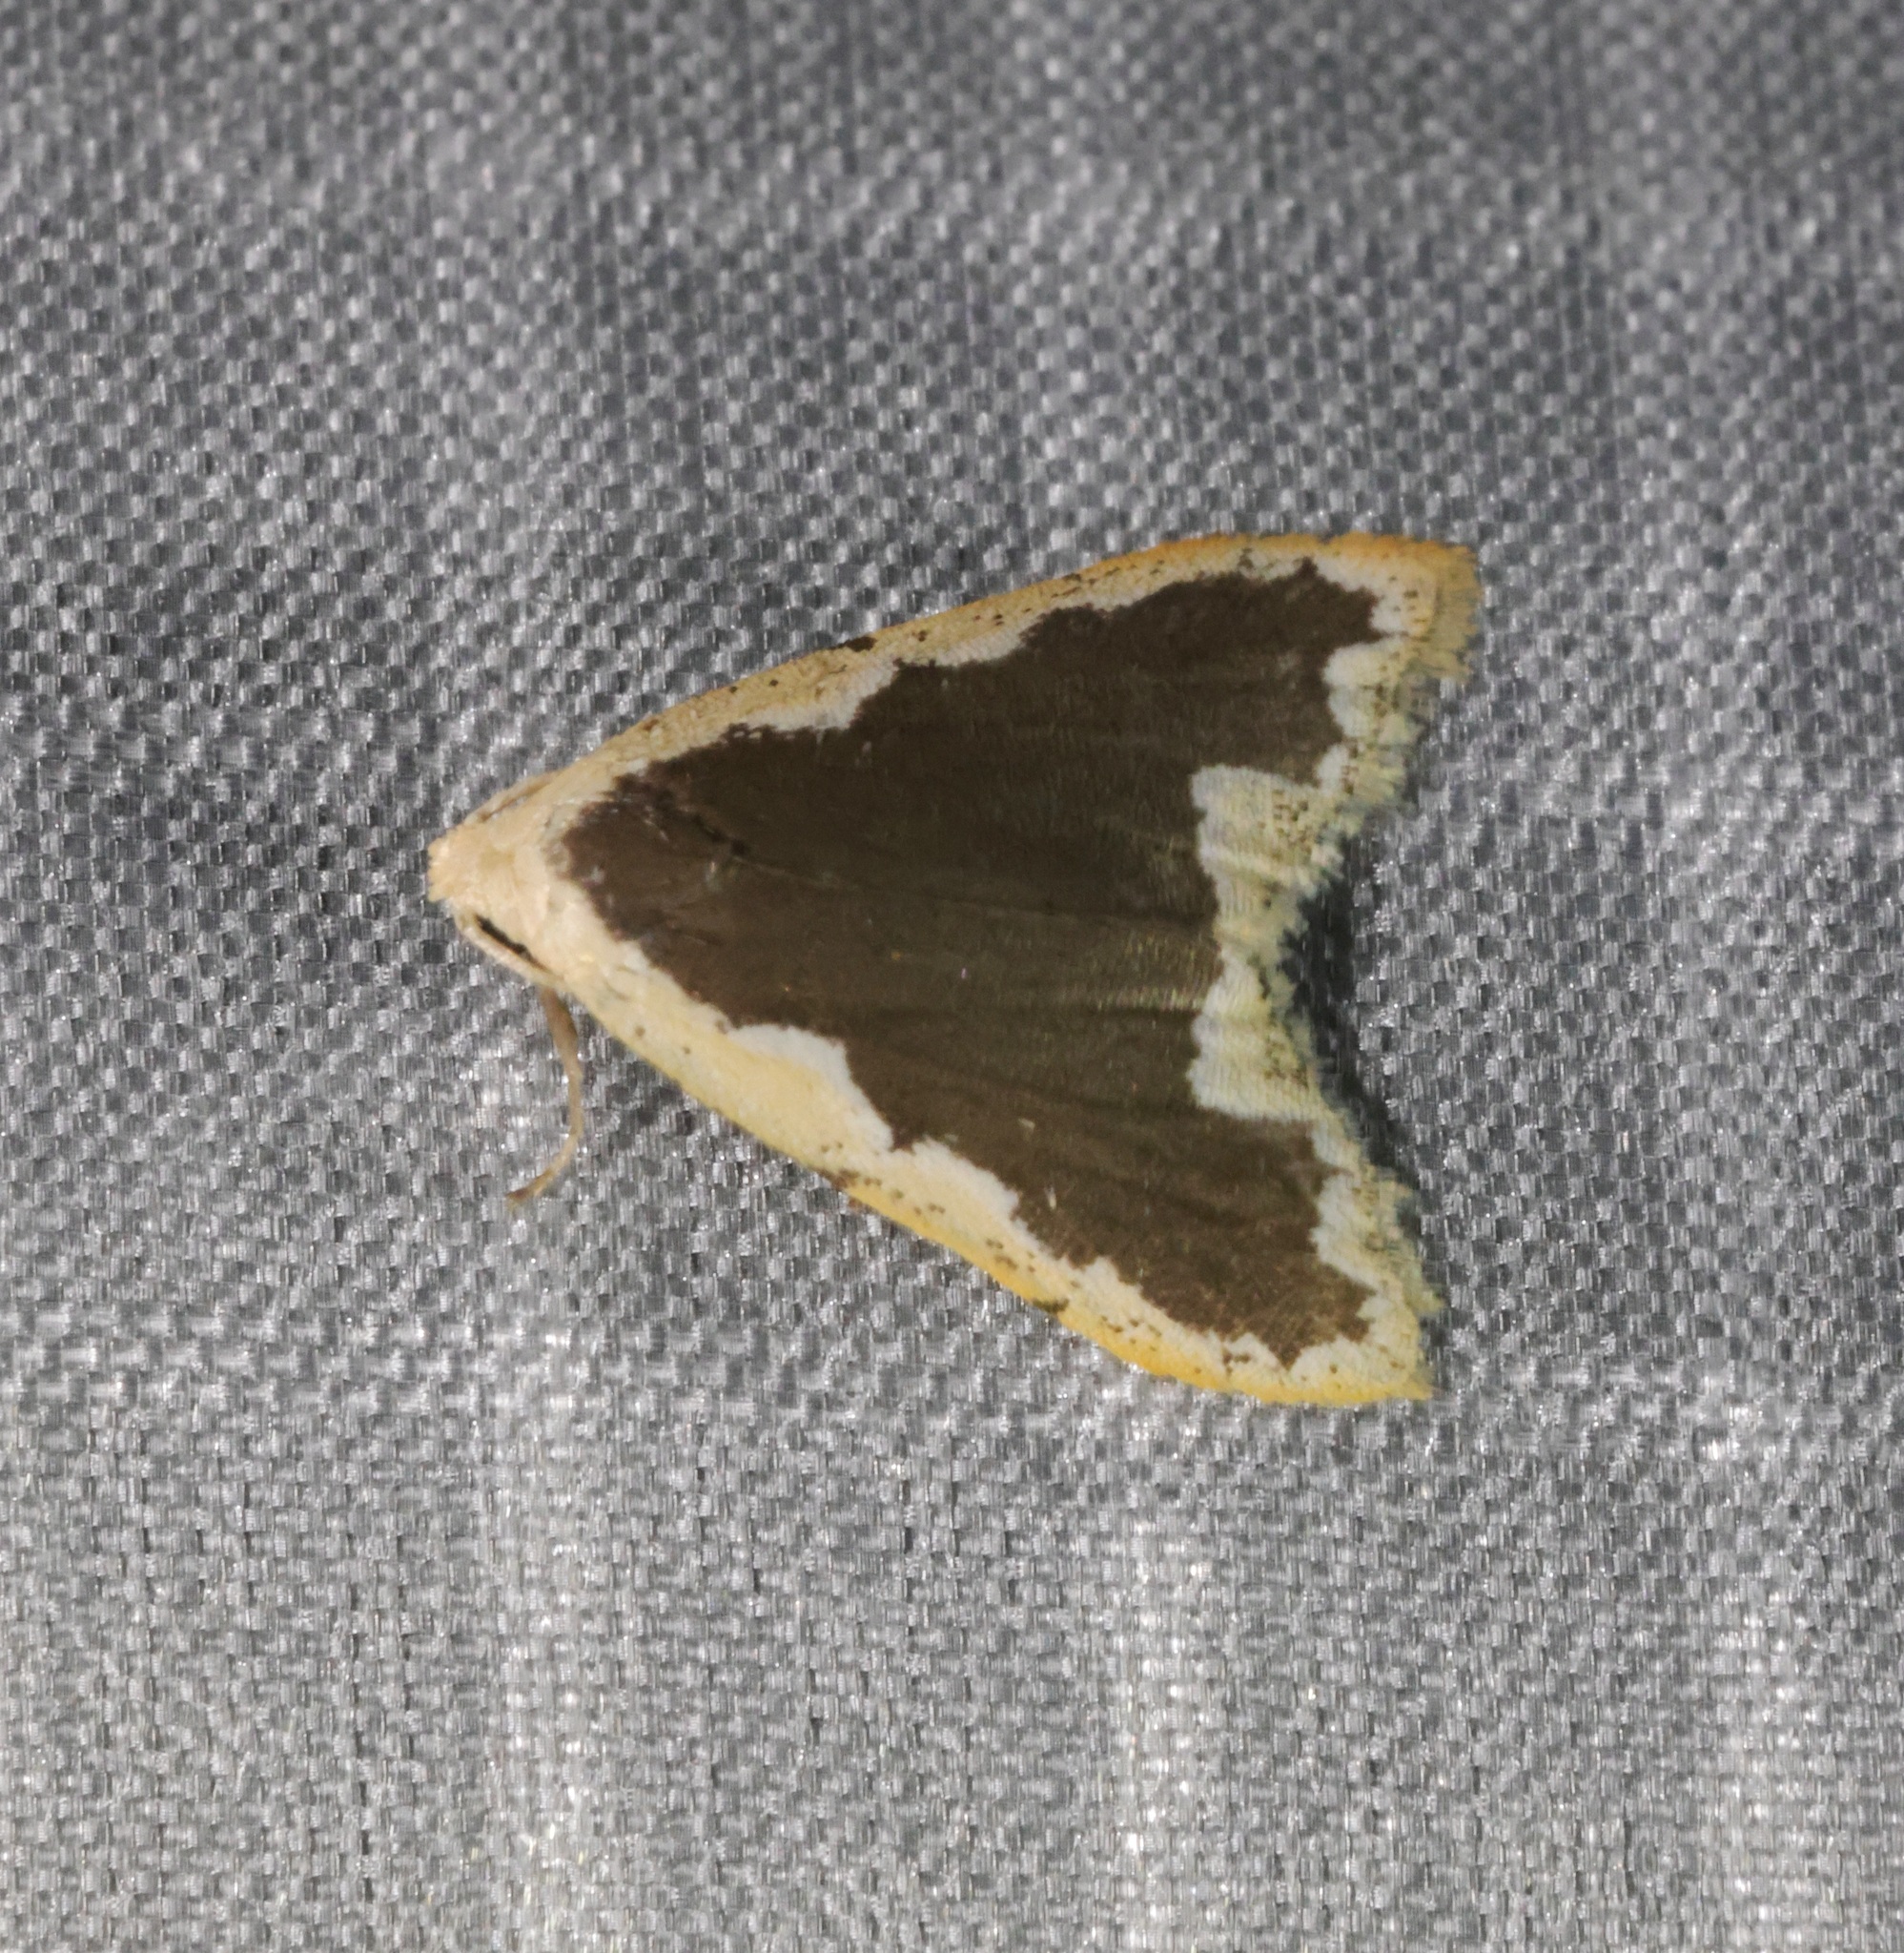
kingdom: Animalia
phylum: Arthropoda
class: Insecta
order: Lepidoptera
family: Erebidae
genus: Diduga
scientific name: Diduga flavicostata
